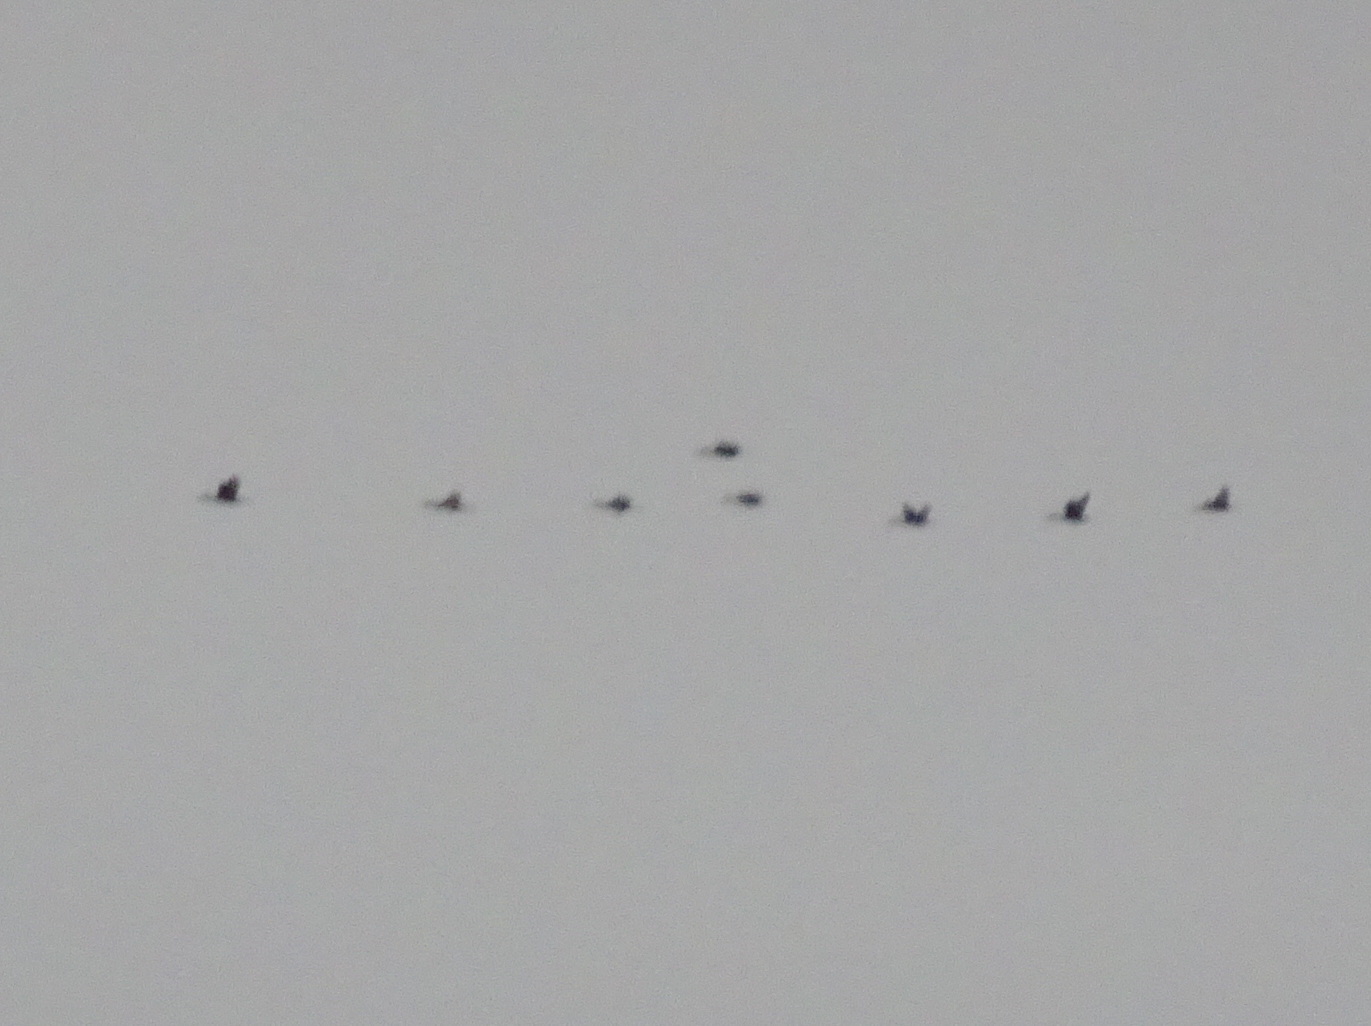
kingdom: Animalia
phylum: Chordata
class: Aves
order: Suliformes
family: Phalacrocoracidae
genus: Phalacrocorax
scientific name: Phalacrocorax auritus
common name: Double-crested cormorant
